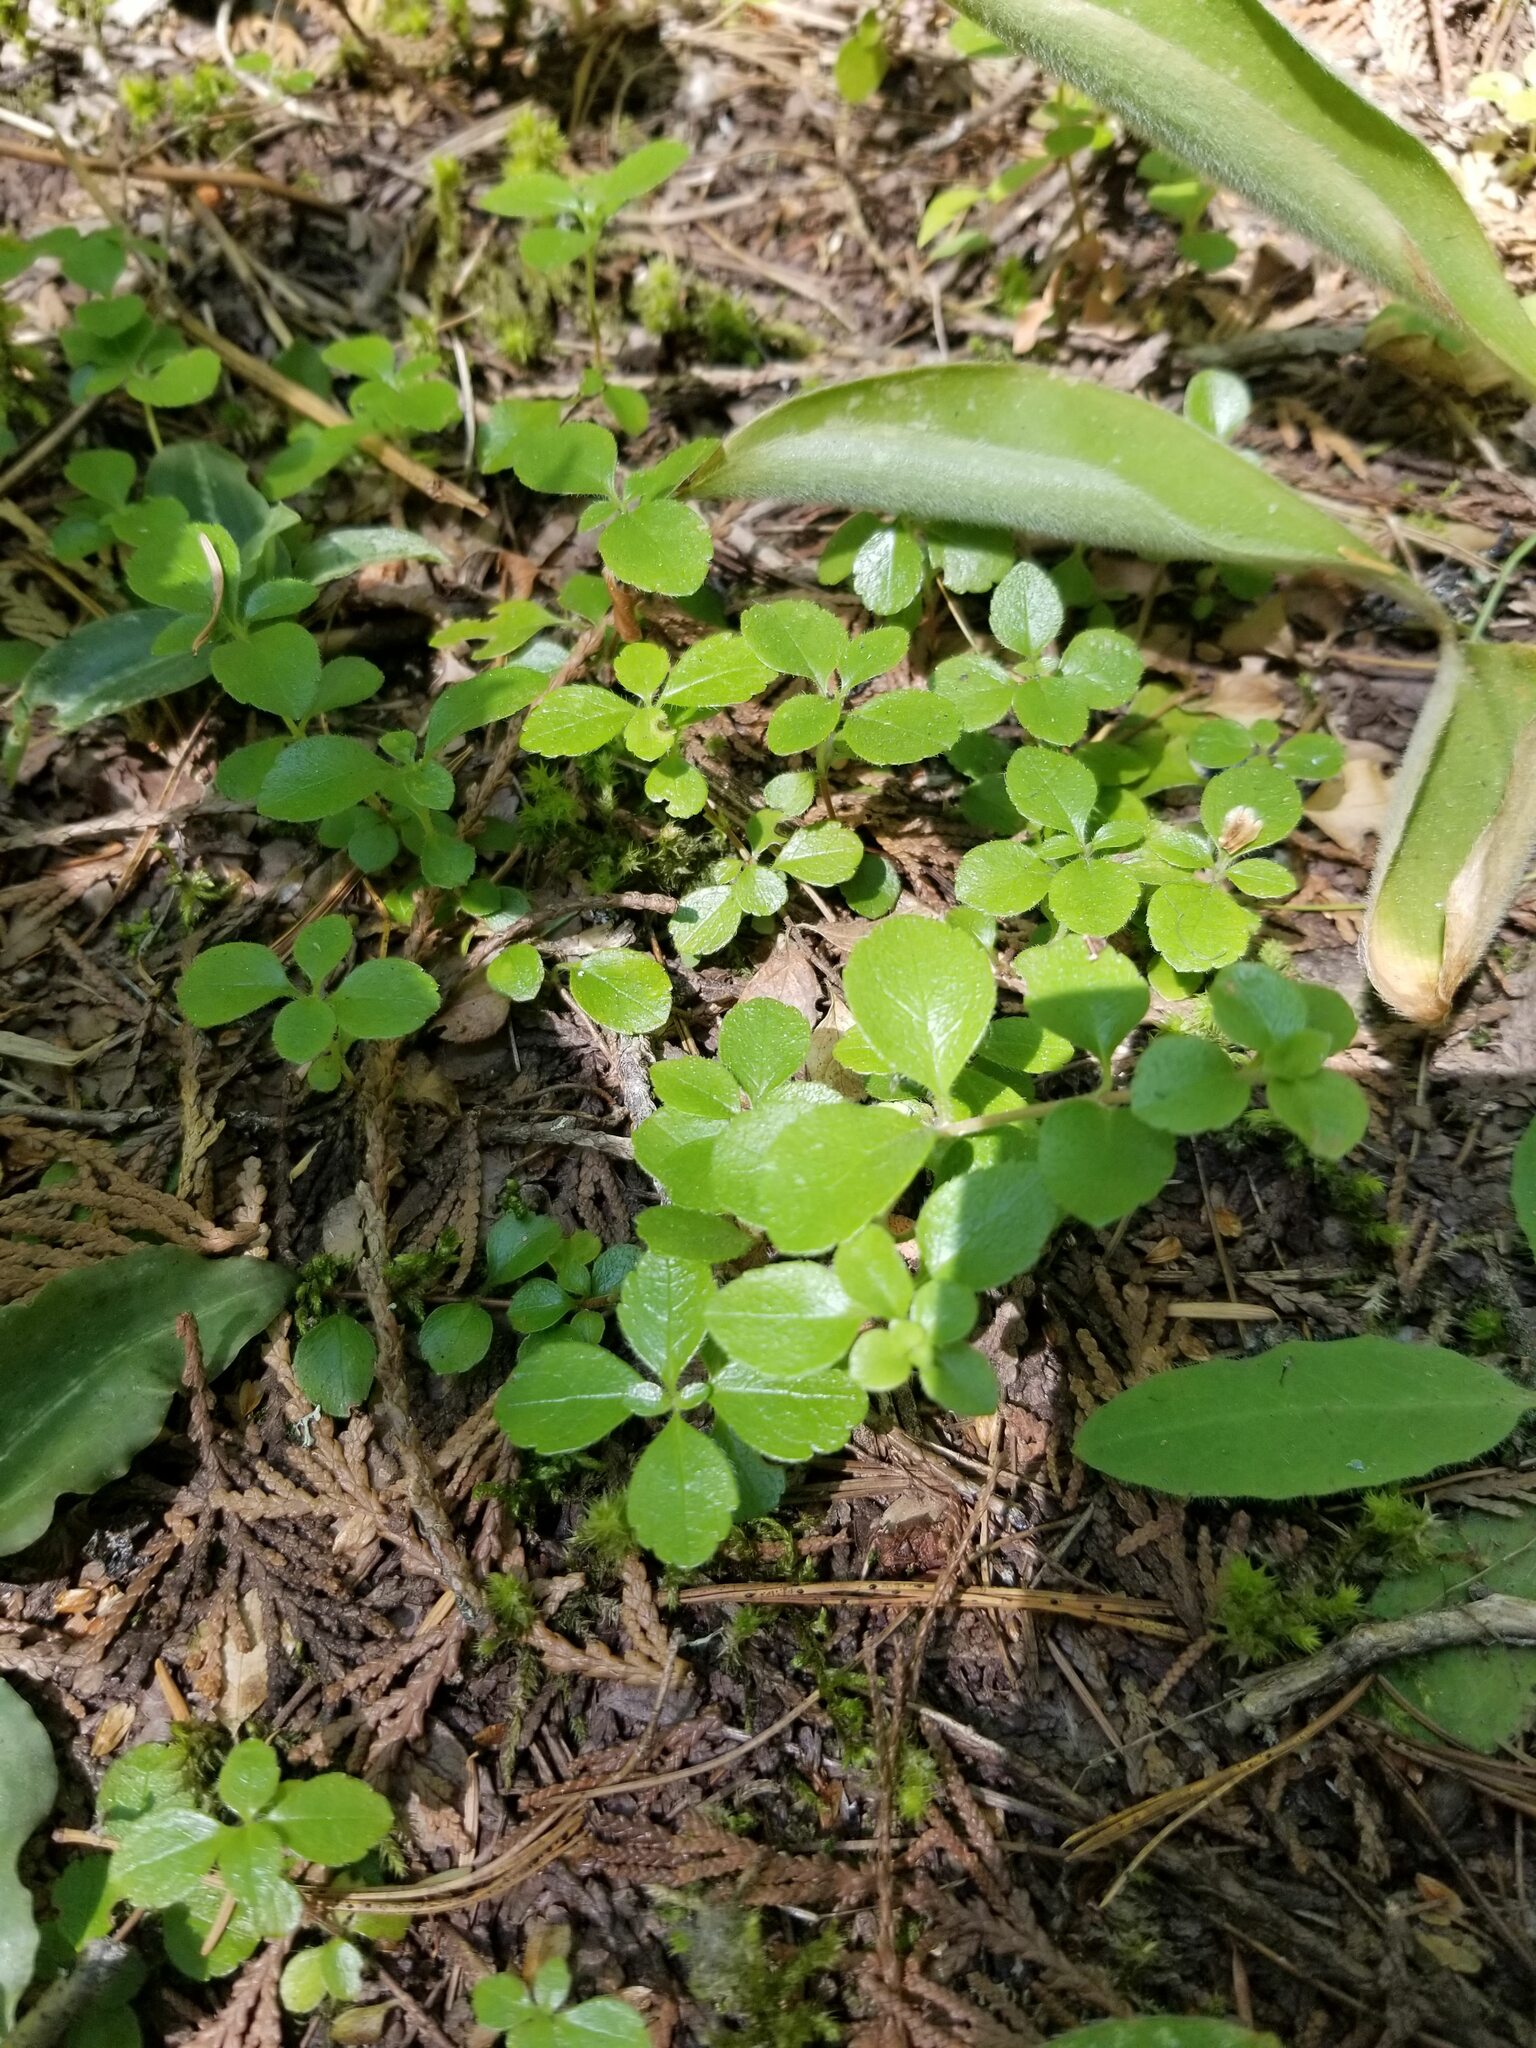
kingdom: Plantae
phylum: Tracheophyta
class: Magnoliopsida
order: Dipsacales
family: Caprifoliaceae
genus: Linnaea
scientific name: Linnaea borealis
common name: Twinflower
